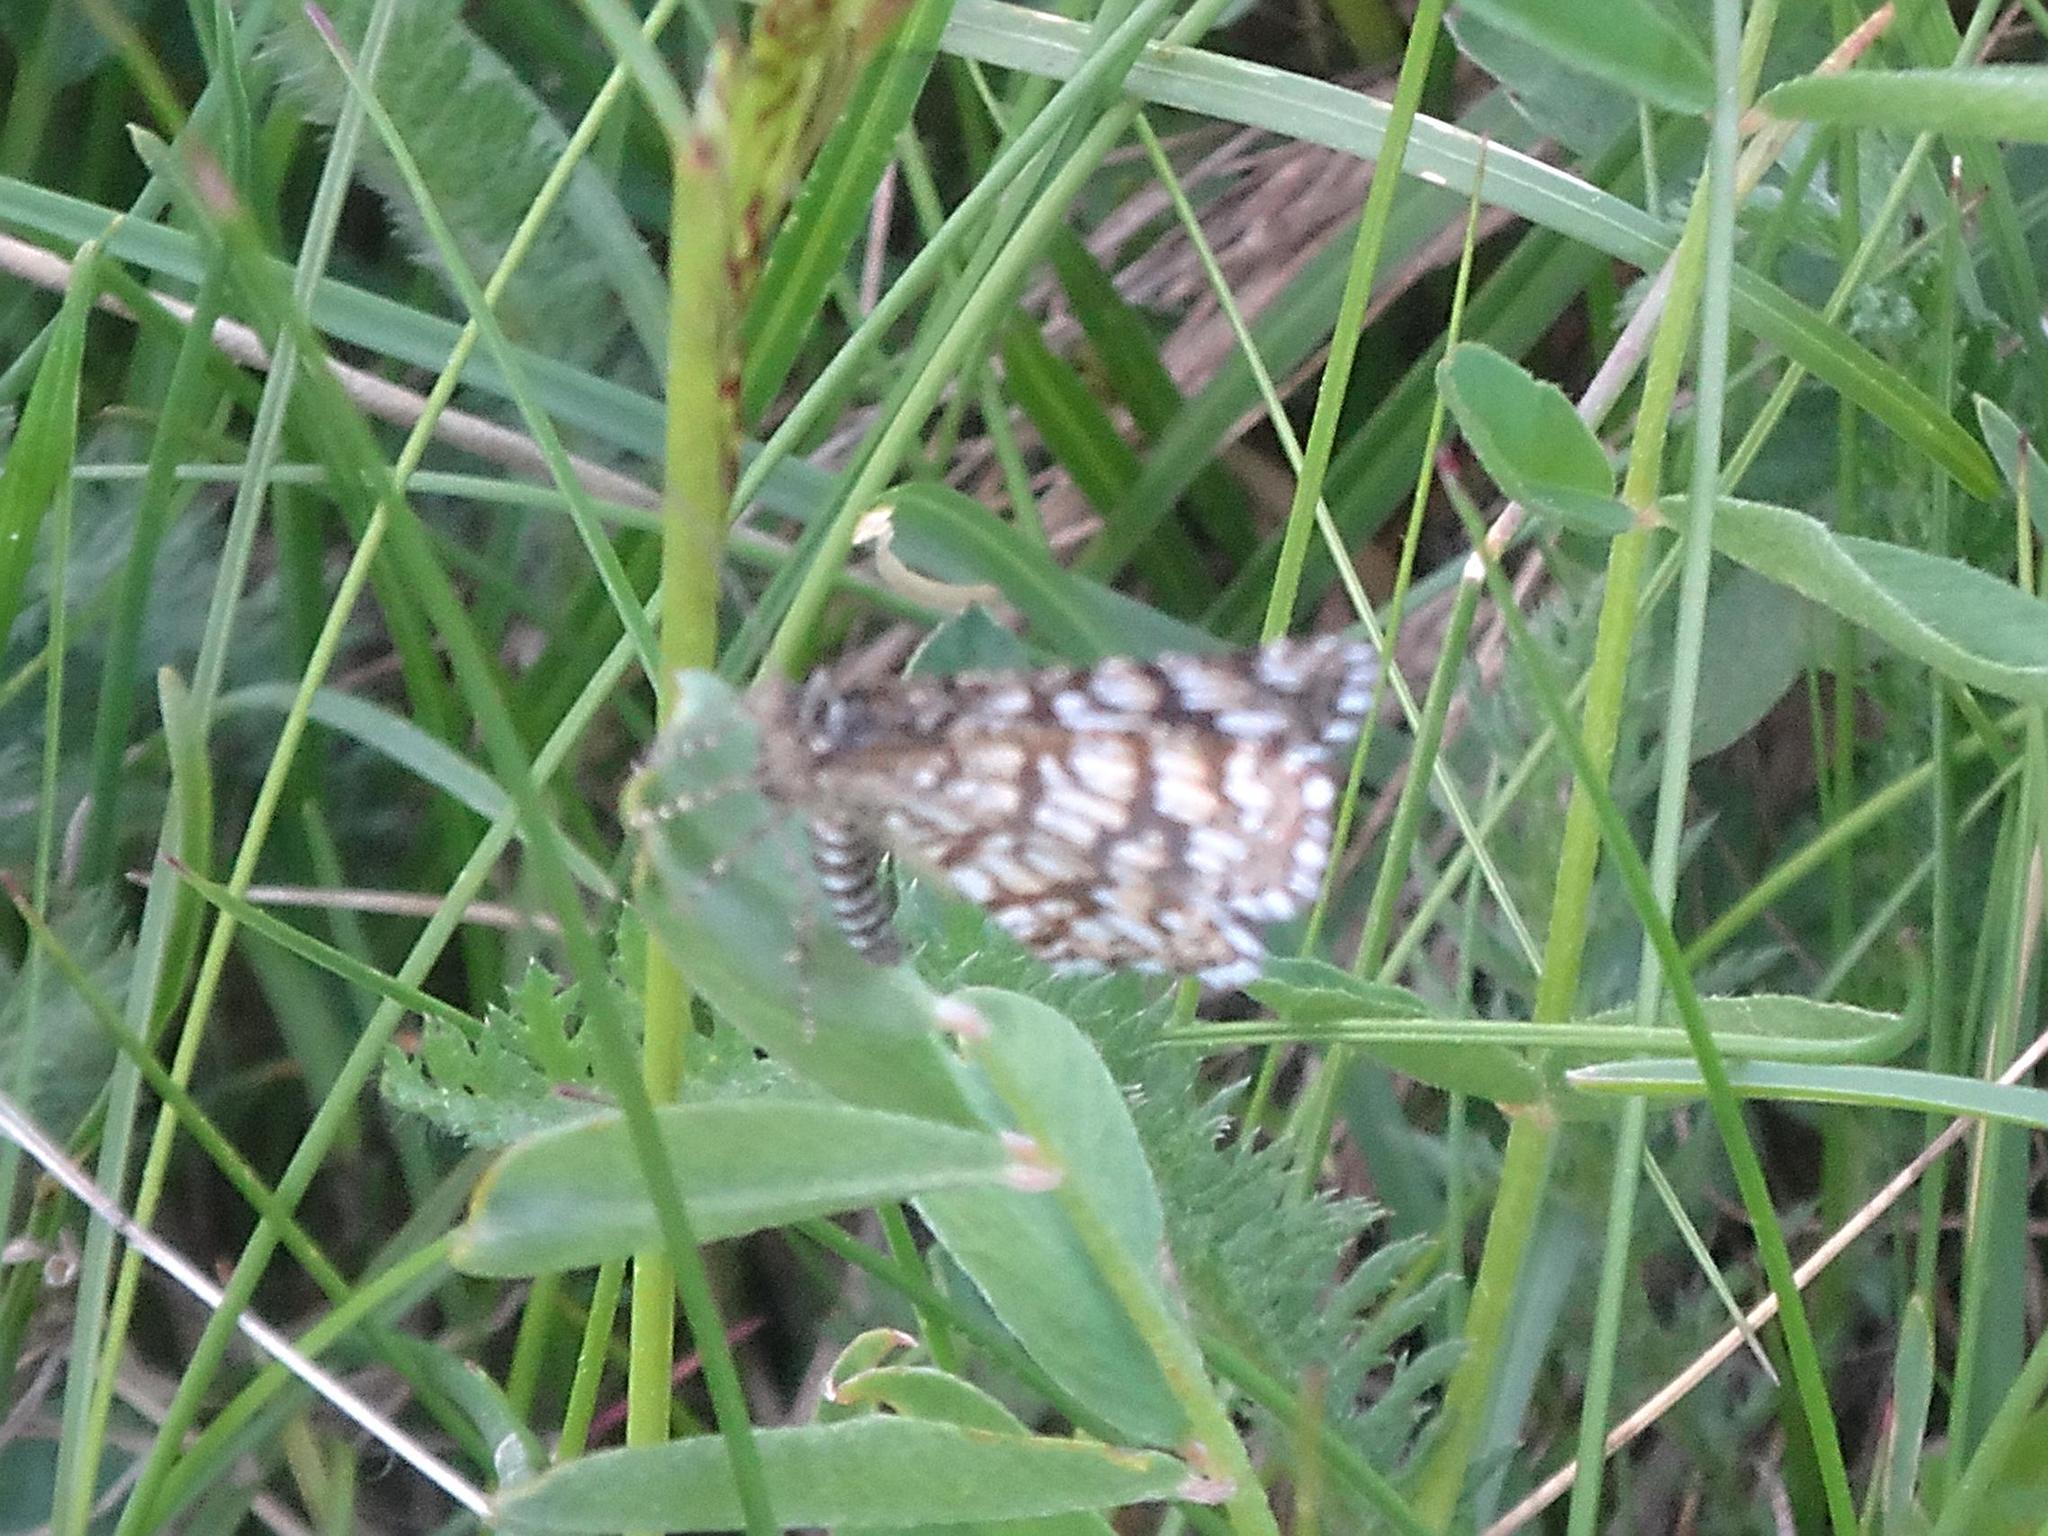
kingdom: Animalia
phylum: Arthropoda
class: Insecta
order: Lepidoptera
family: Geometridae
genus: Chiasmia
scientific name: Chiasmia clathrata
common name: Latticed heath
